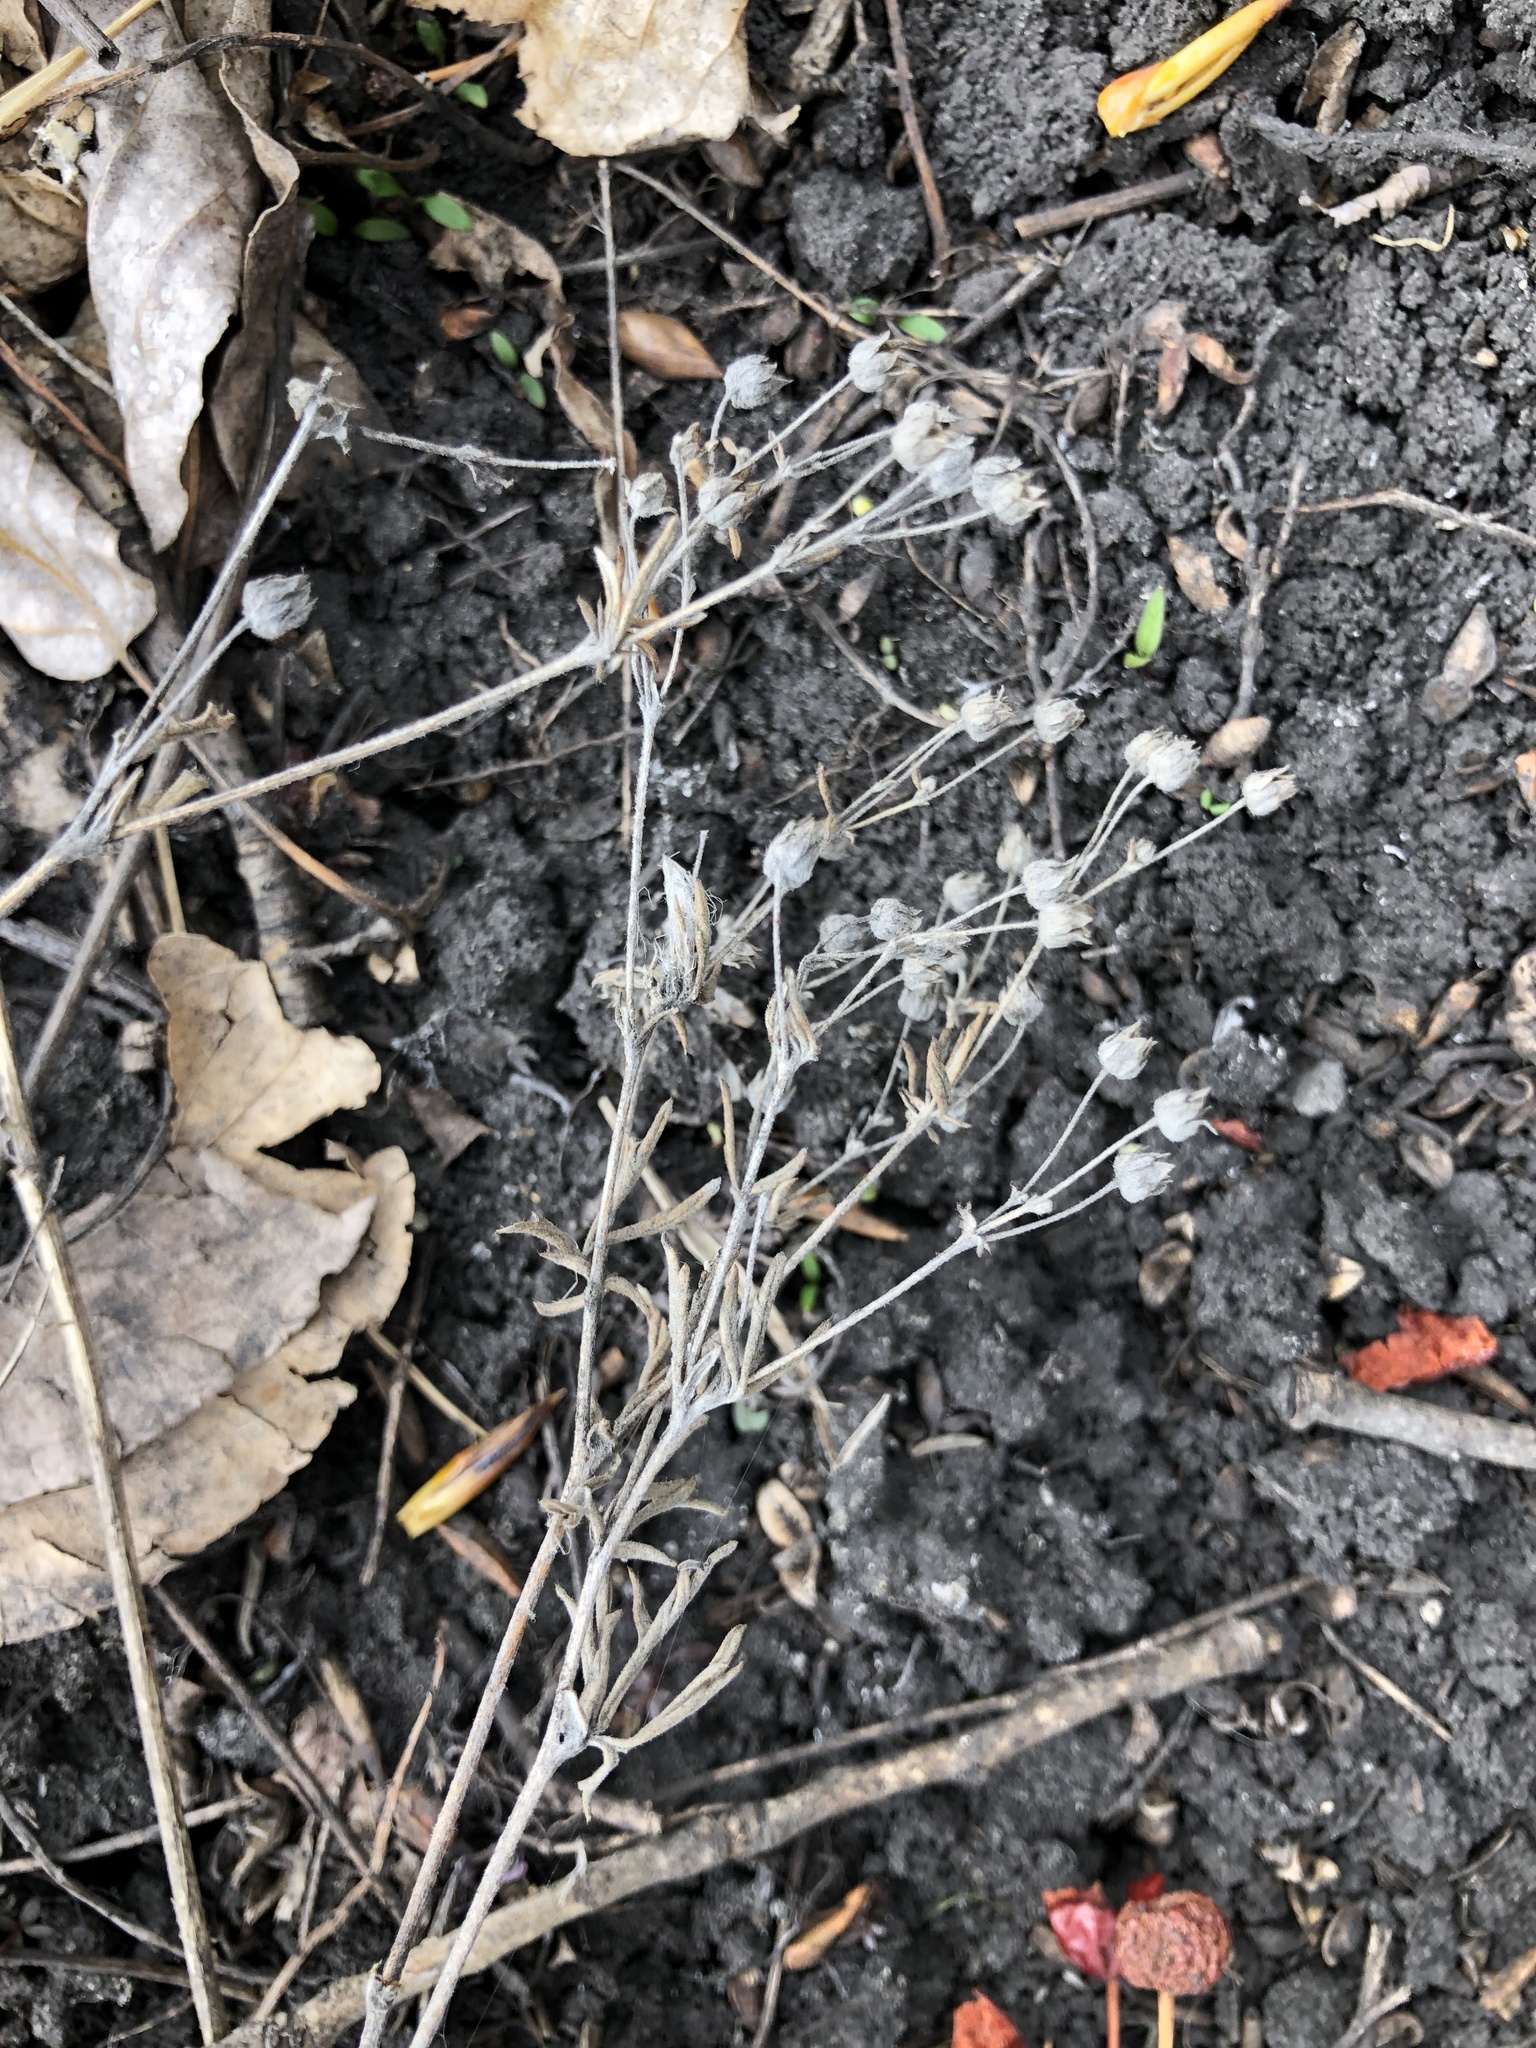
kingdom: Plantae
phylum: Tracheophyta
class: Magnoliopsida
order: Rosales
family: Rosaceae
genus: Potentilla
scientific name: Potentilla argentea
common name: Hoary cinquefoil
